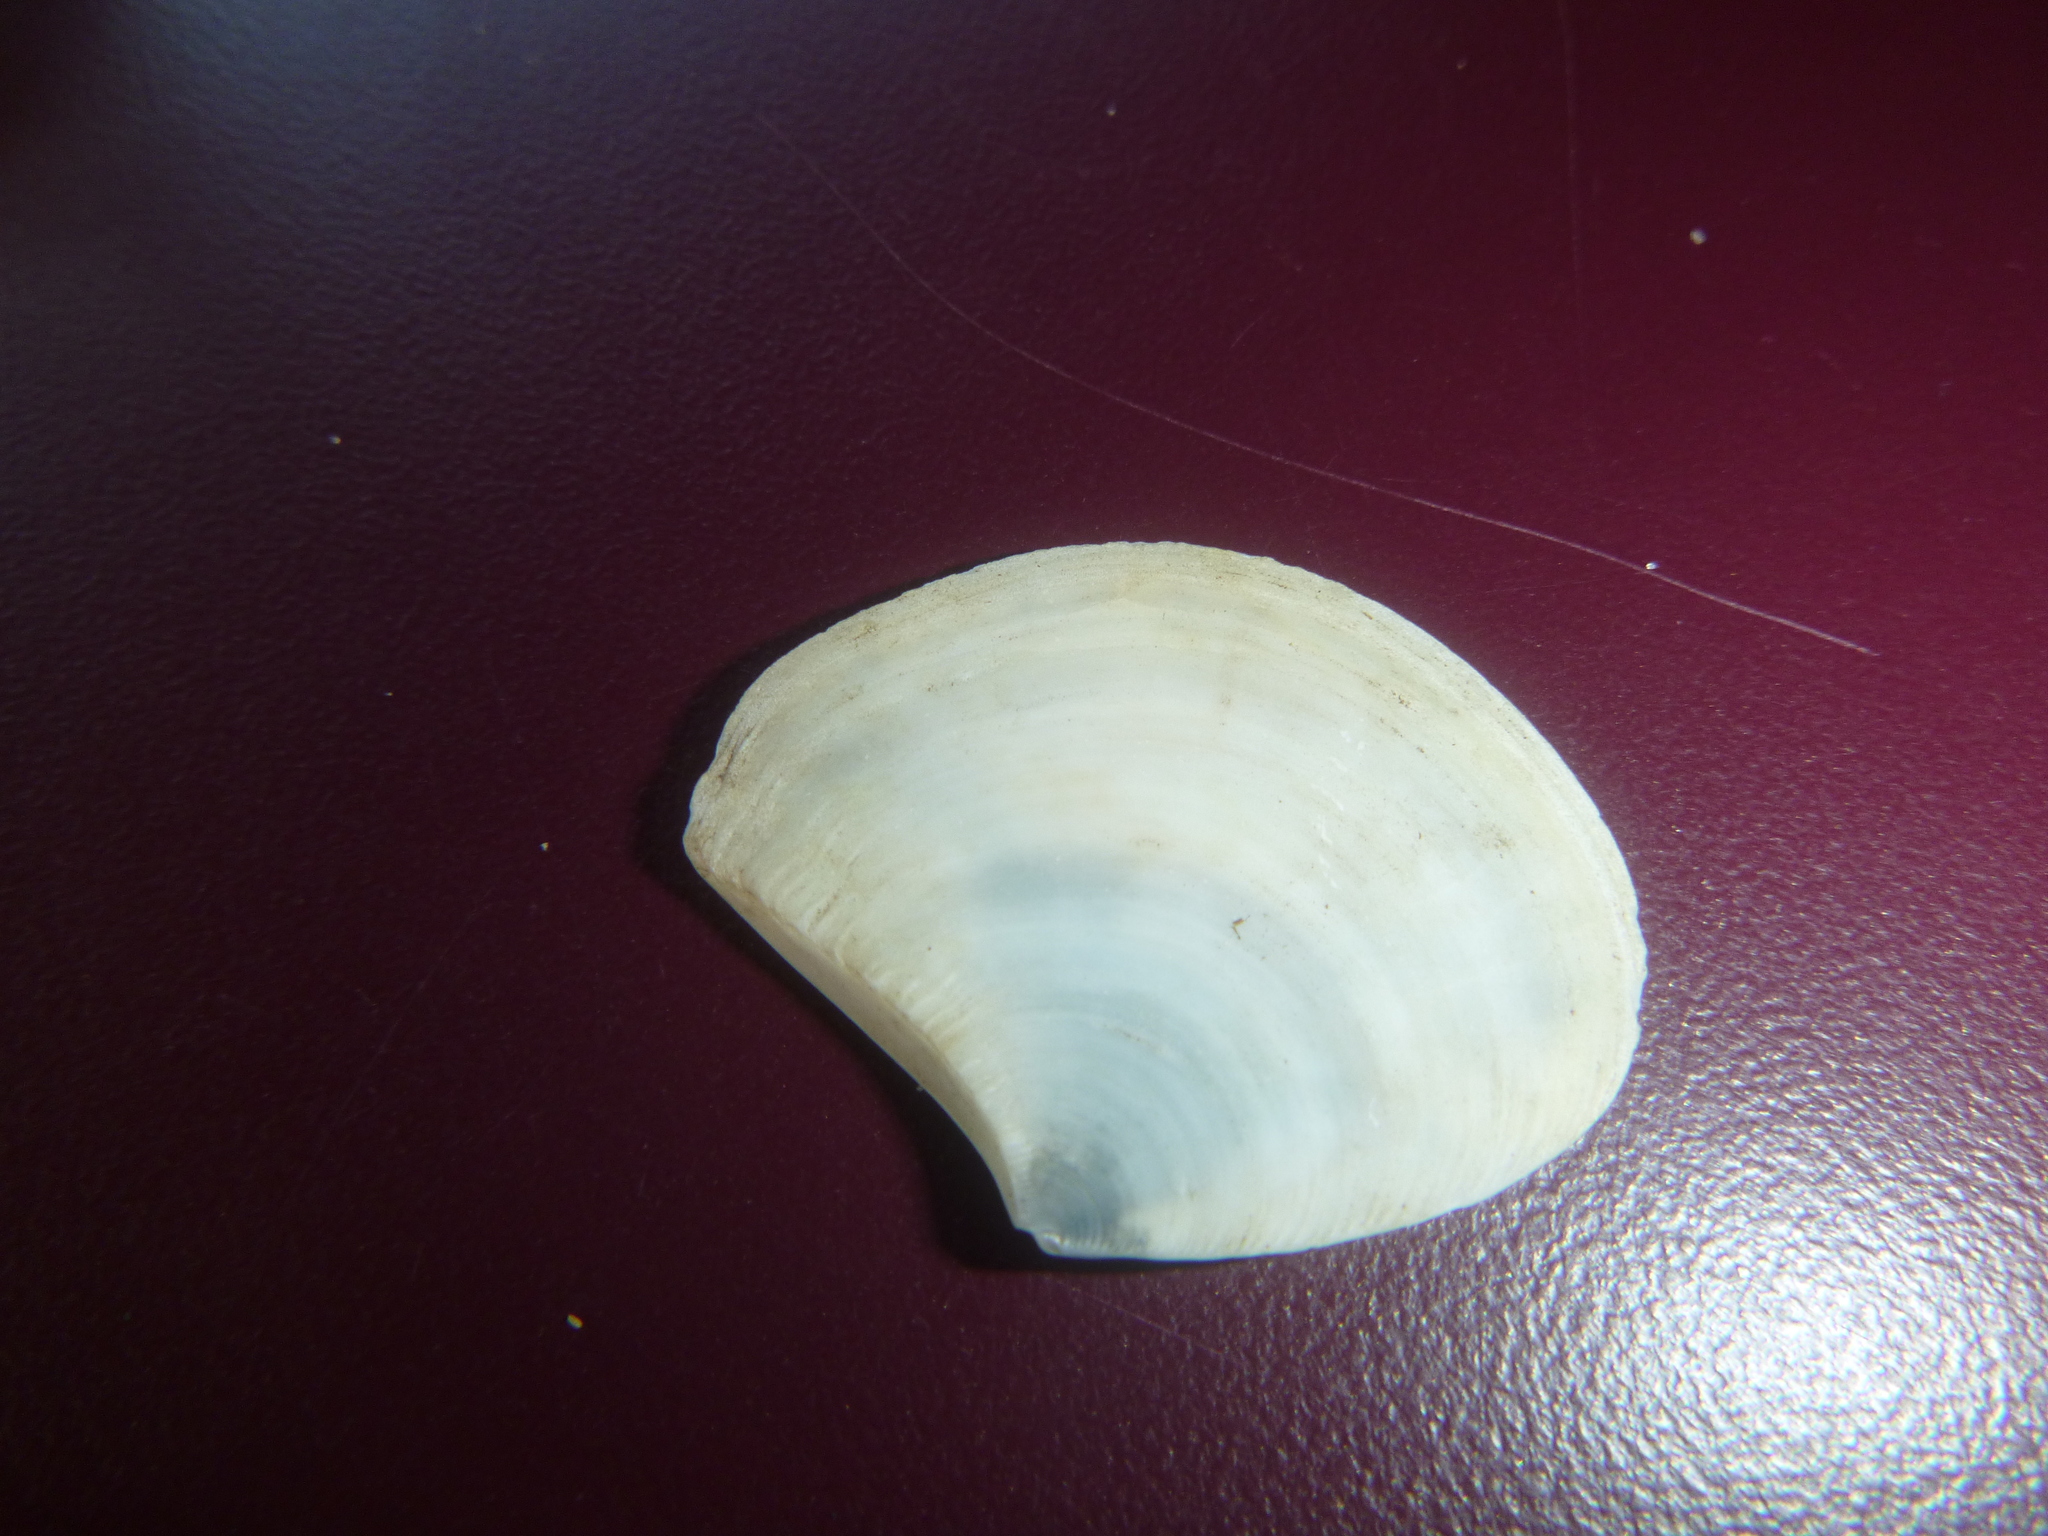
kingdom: Animalia
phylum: Mollusca
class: Bivalvia
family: Myochamidae
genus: Myadora
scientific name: Myadora striata
